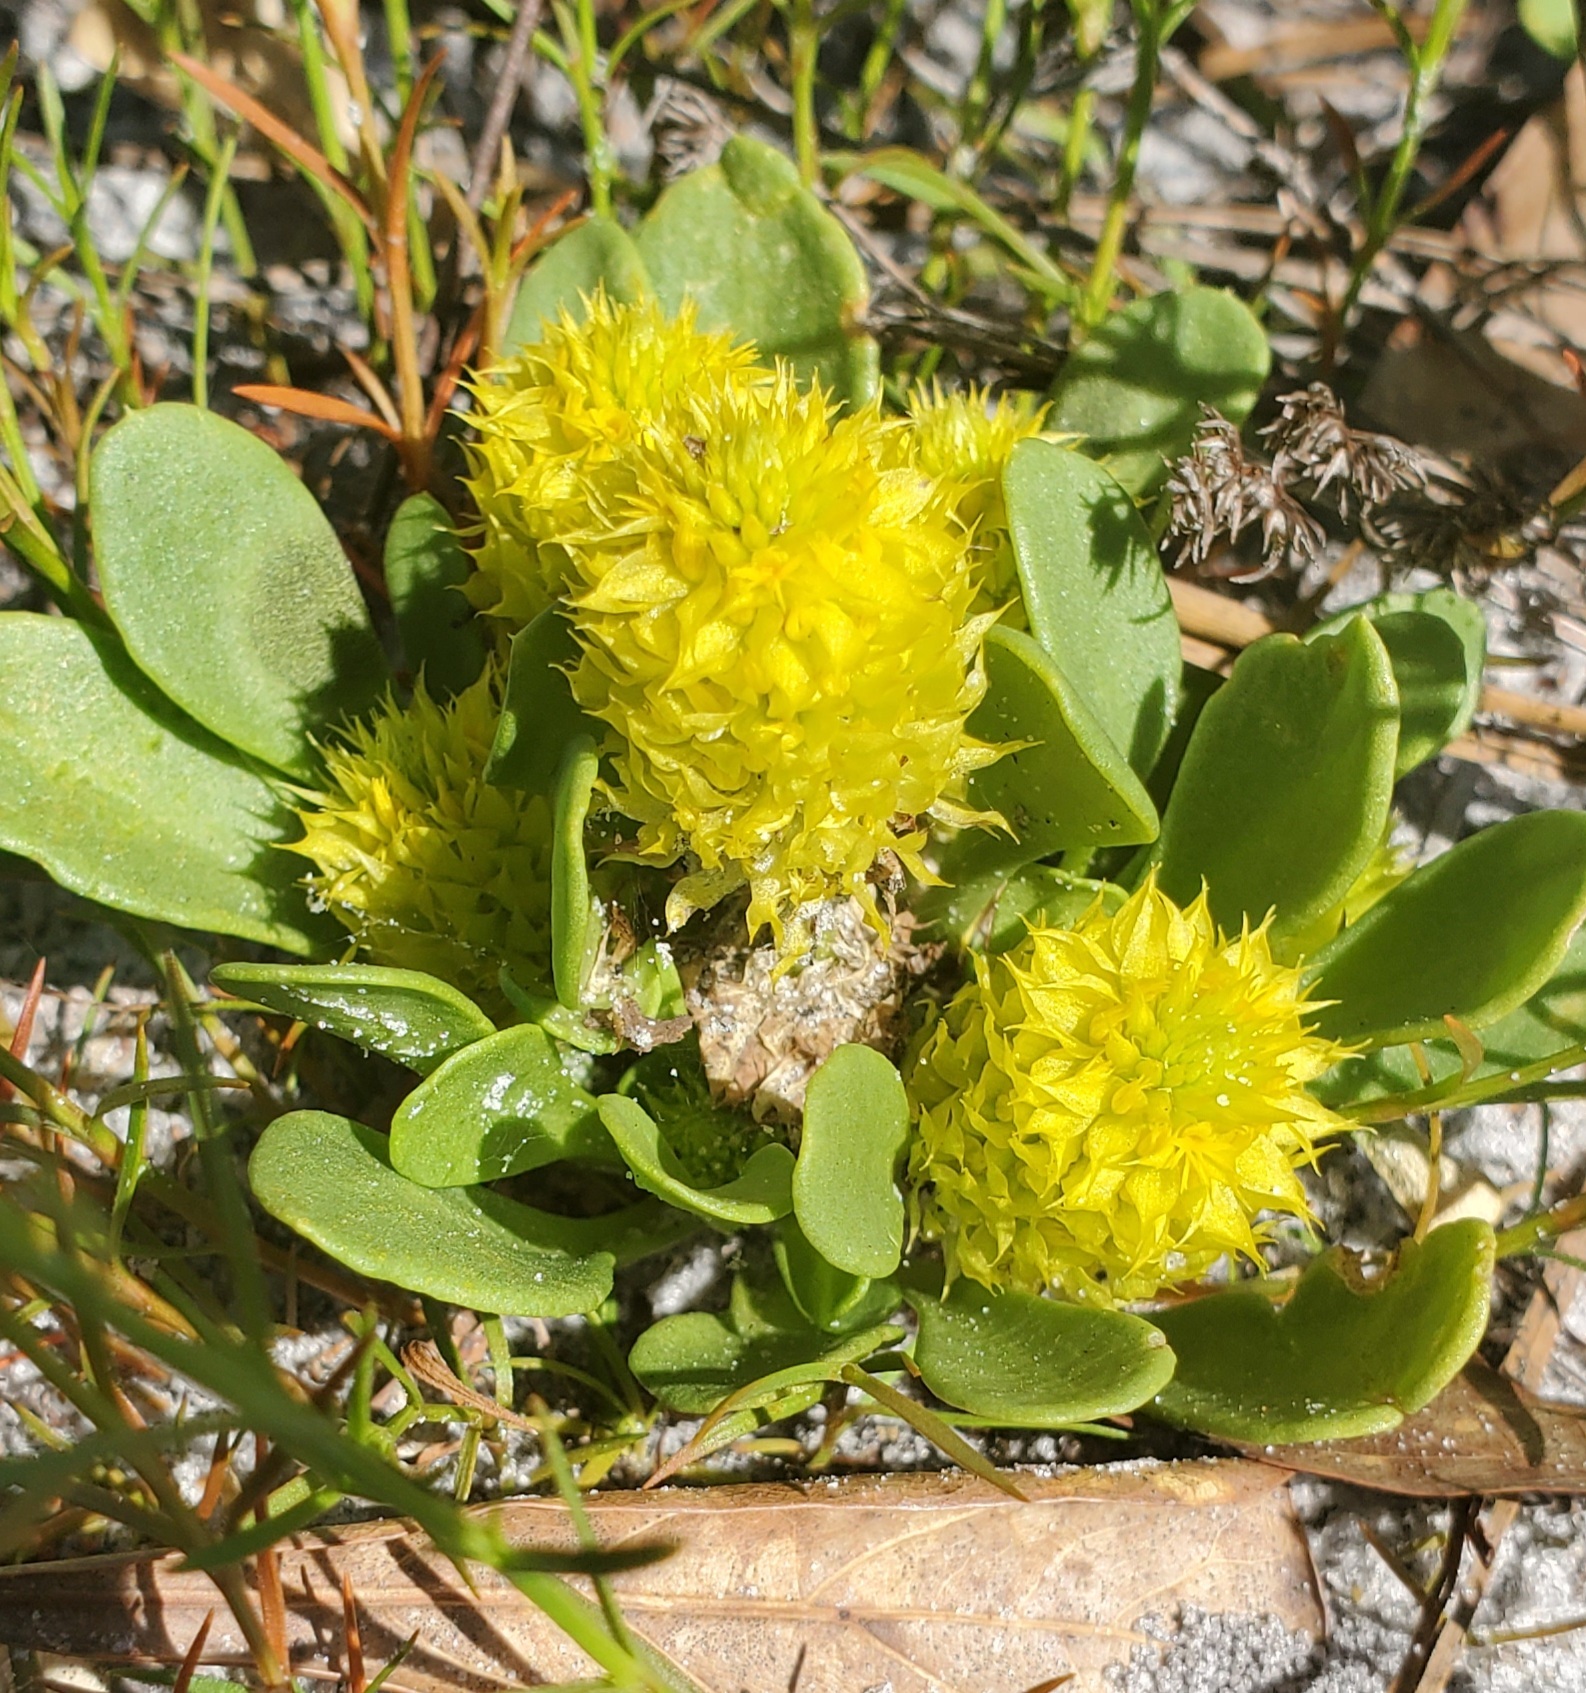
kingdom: Plantae
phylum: Tracheophyta
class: Magnoliopsida
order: Fabales
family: Polygalaceae
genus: Polygala
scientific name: Polygala nana
